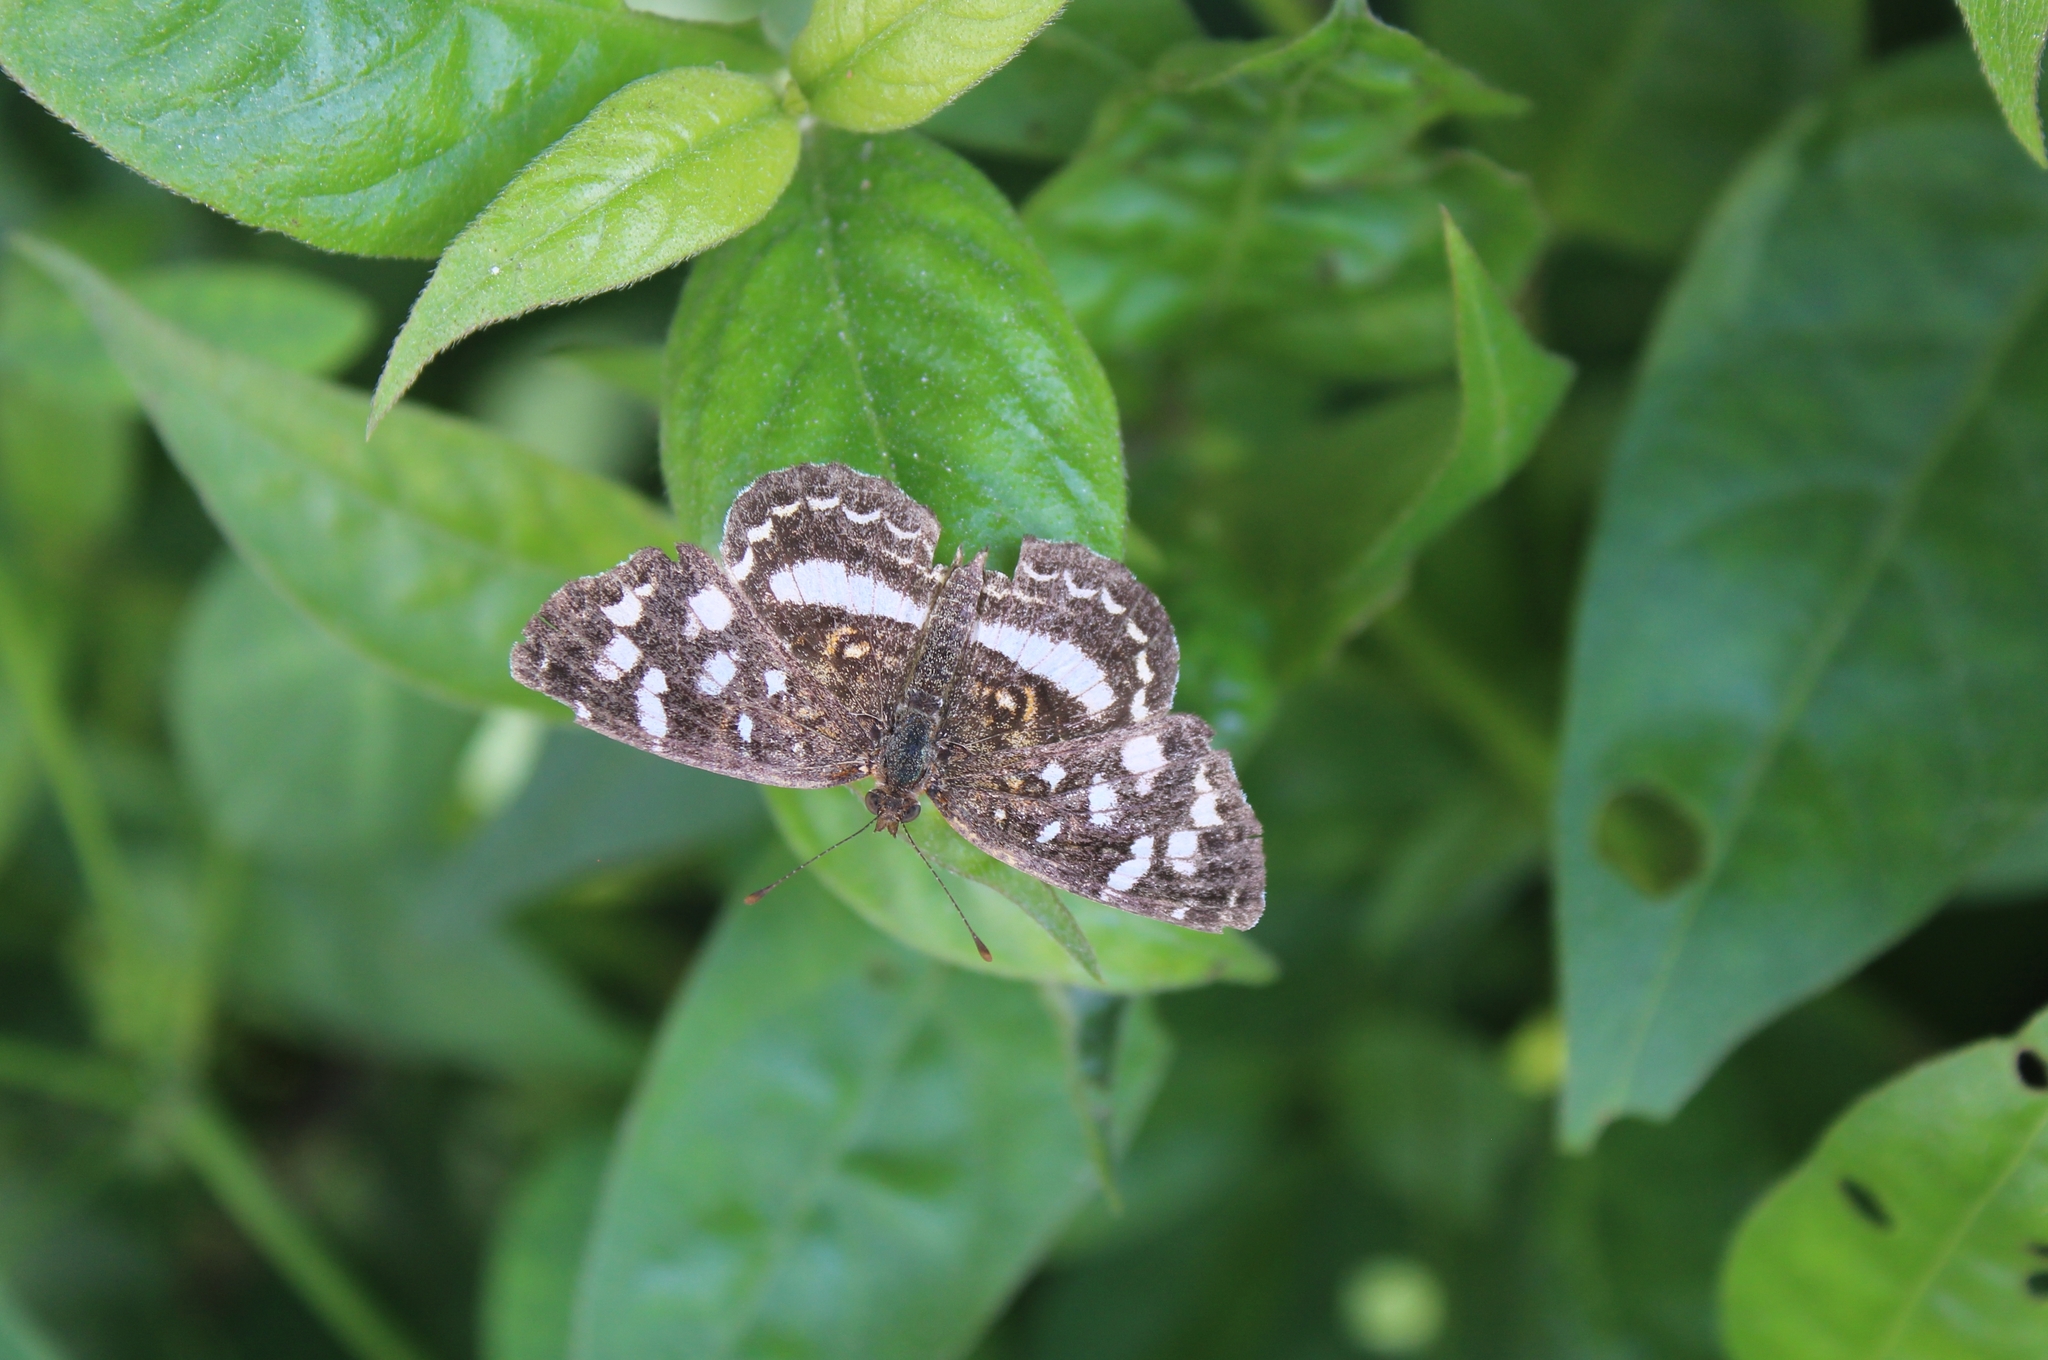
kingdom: Animalia
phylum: Arthropoda
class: Insecta
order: Lepidoptera
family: Nymphalidae
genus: Anthanassa
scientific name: Anthanassa tulcis
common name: Pale-banded crescent
